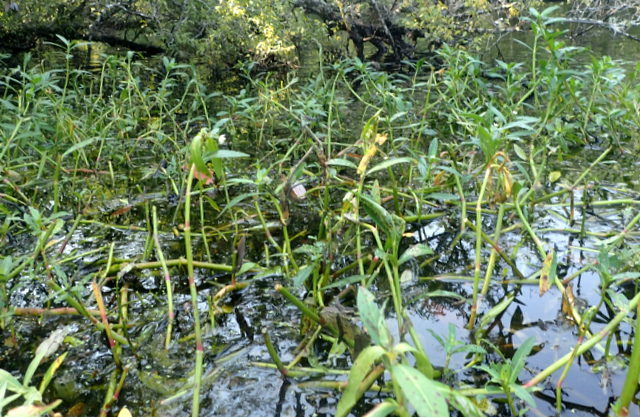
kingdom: Plantae
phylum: Tracheophyta
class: Magnoliopsida
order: Caryophyllales
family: Amaranthaceae
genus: Alternanthera
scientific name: Alternanthera philoxeroides
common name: Alligatorweed
